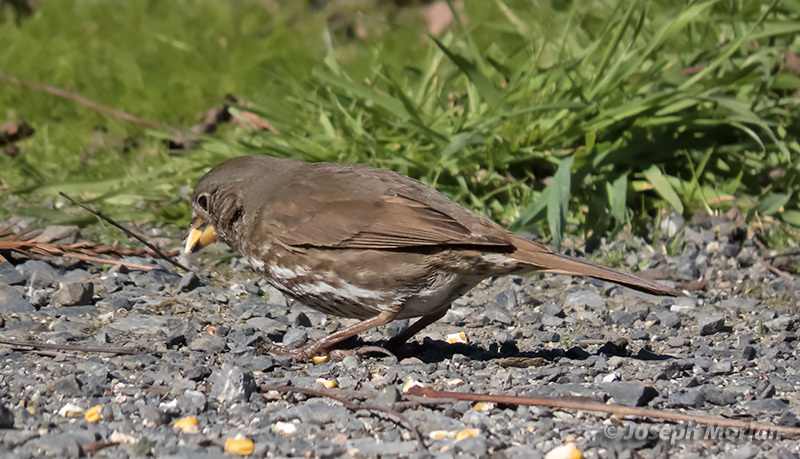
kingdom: Animalia
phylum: Chordata
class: Aves
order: Passeriformes
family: Passerellidae
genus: Passerella
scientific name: Passerella iliaca
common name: Fox sparrow
